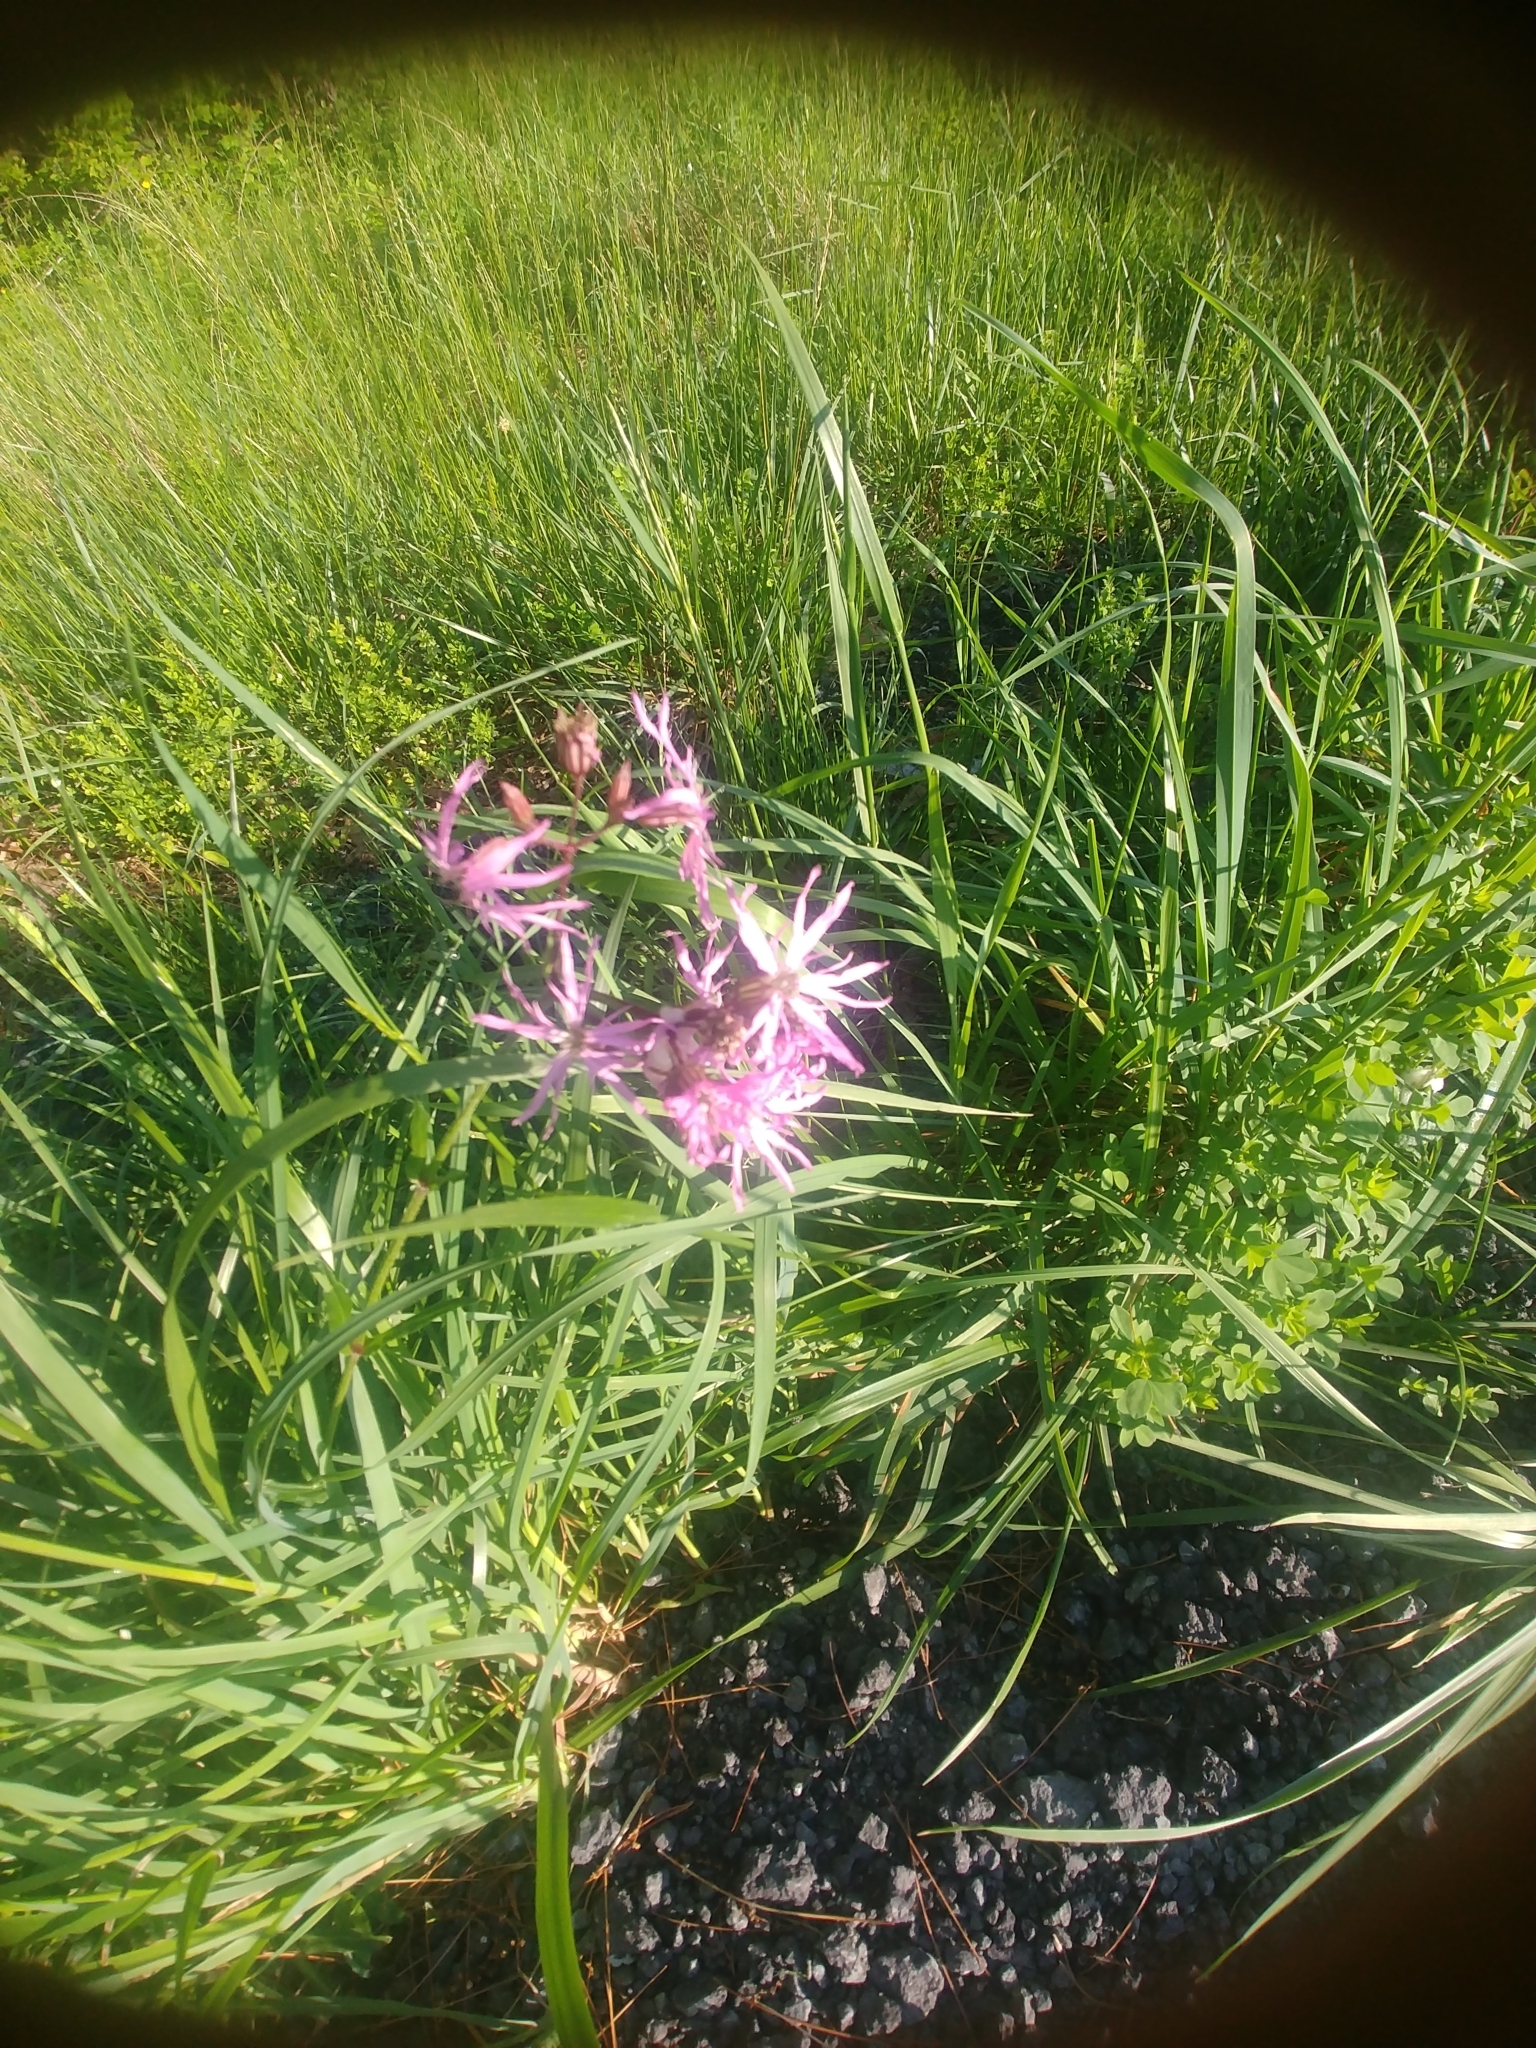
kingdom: Plantae
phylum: Tracheophyta
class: Magnoliopsida
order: Caryophyllales
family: Caryophyllaceae
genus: Silene
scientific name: Silene flos-cuculi
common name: Ragged-robin
